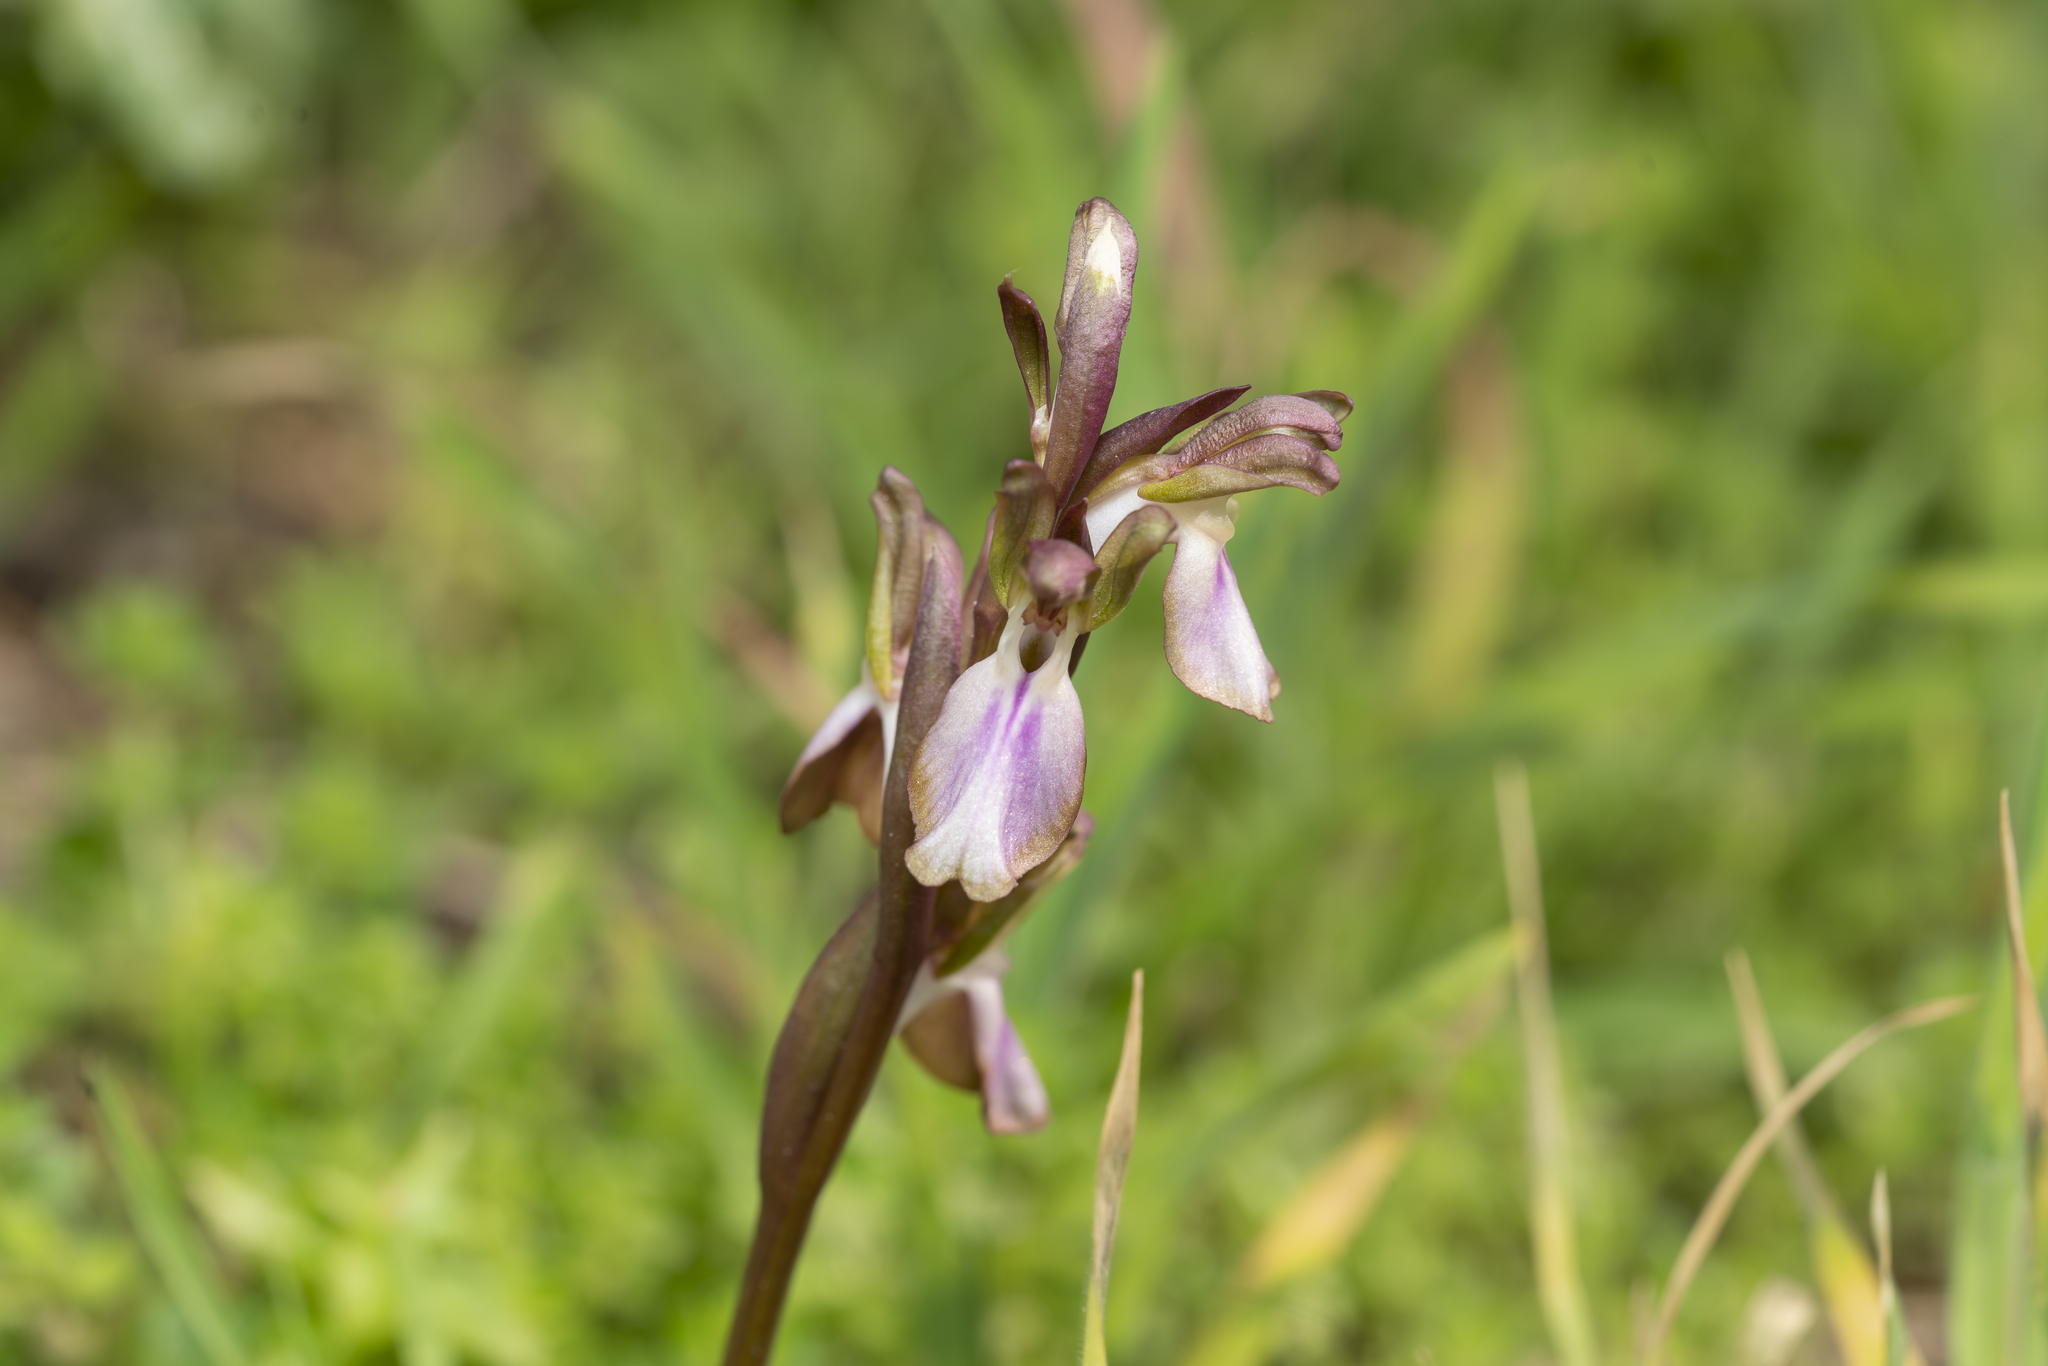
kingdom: Plantae
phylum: Tracheophyta
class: Liliopsida
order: Asparagales
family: Orchidaceae
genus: Anacamptis
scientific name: Anacamptis collina
